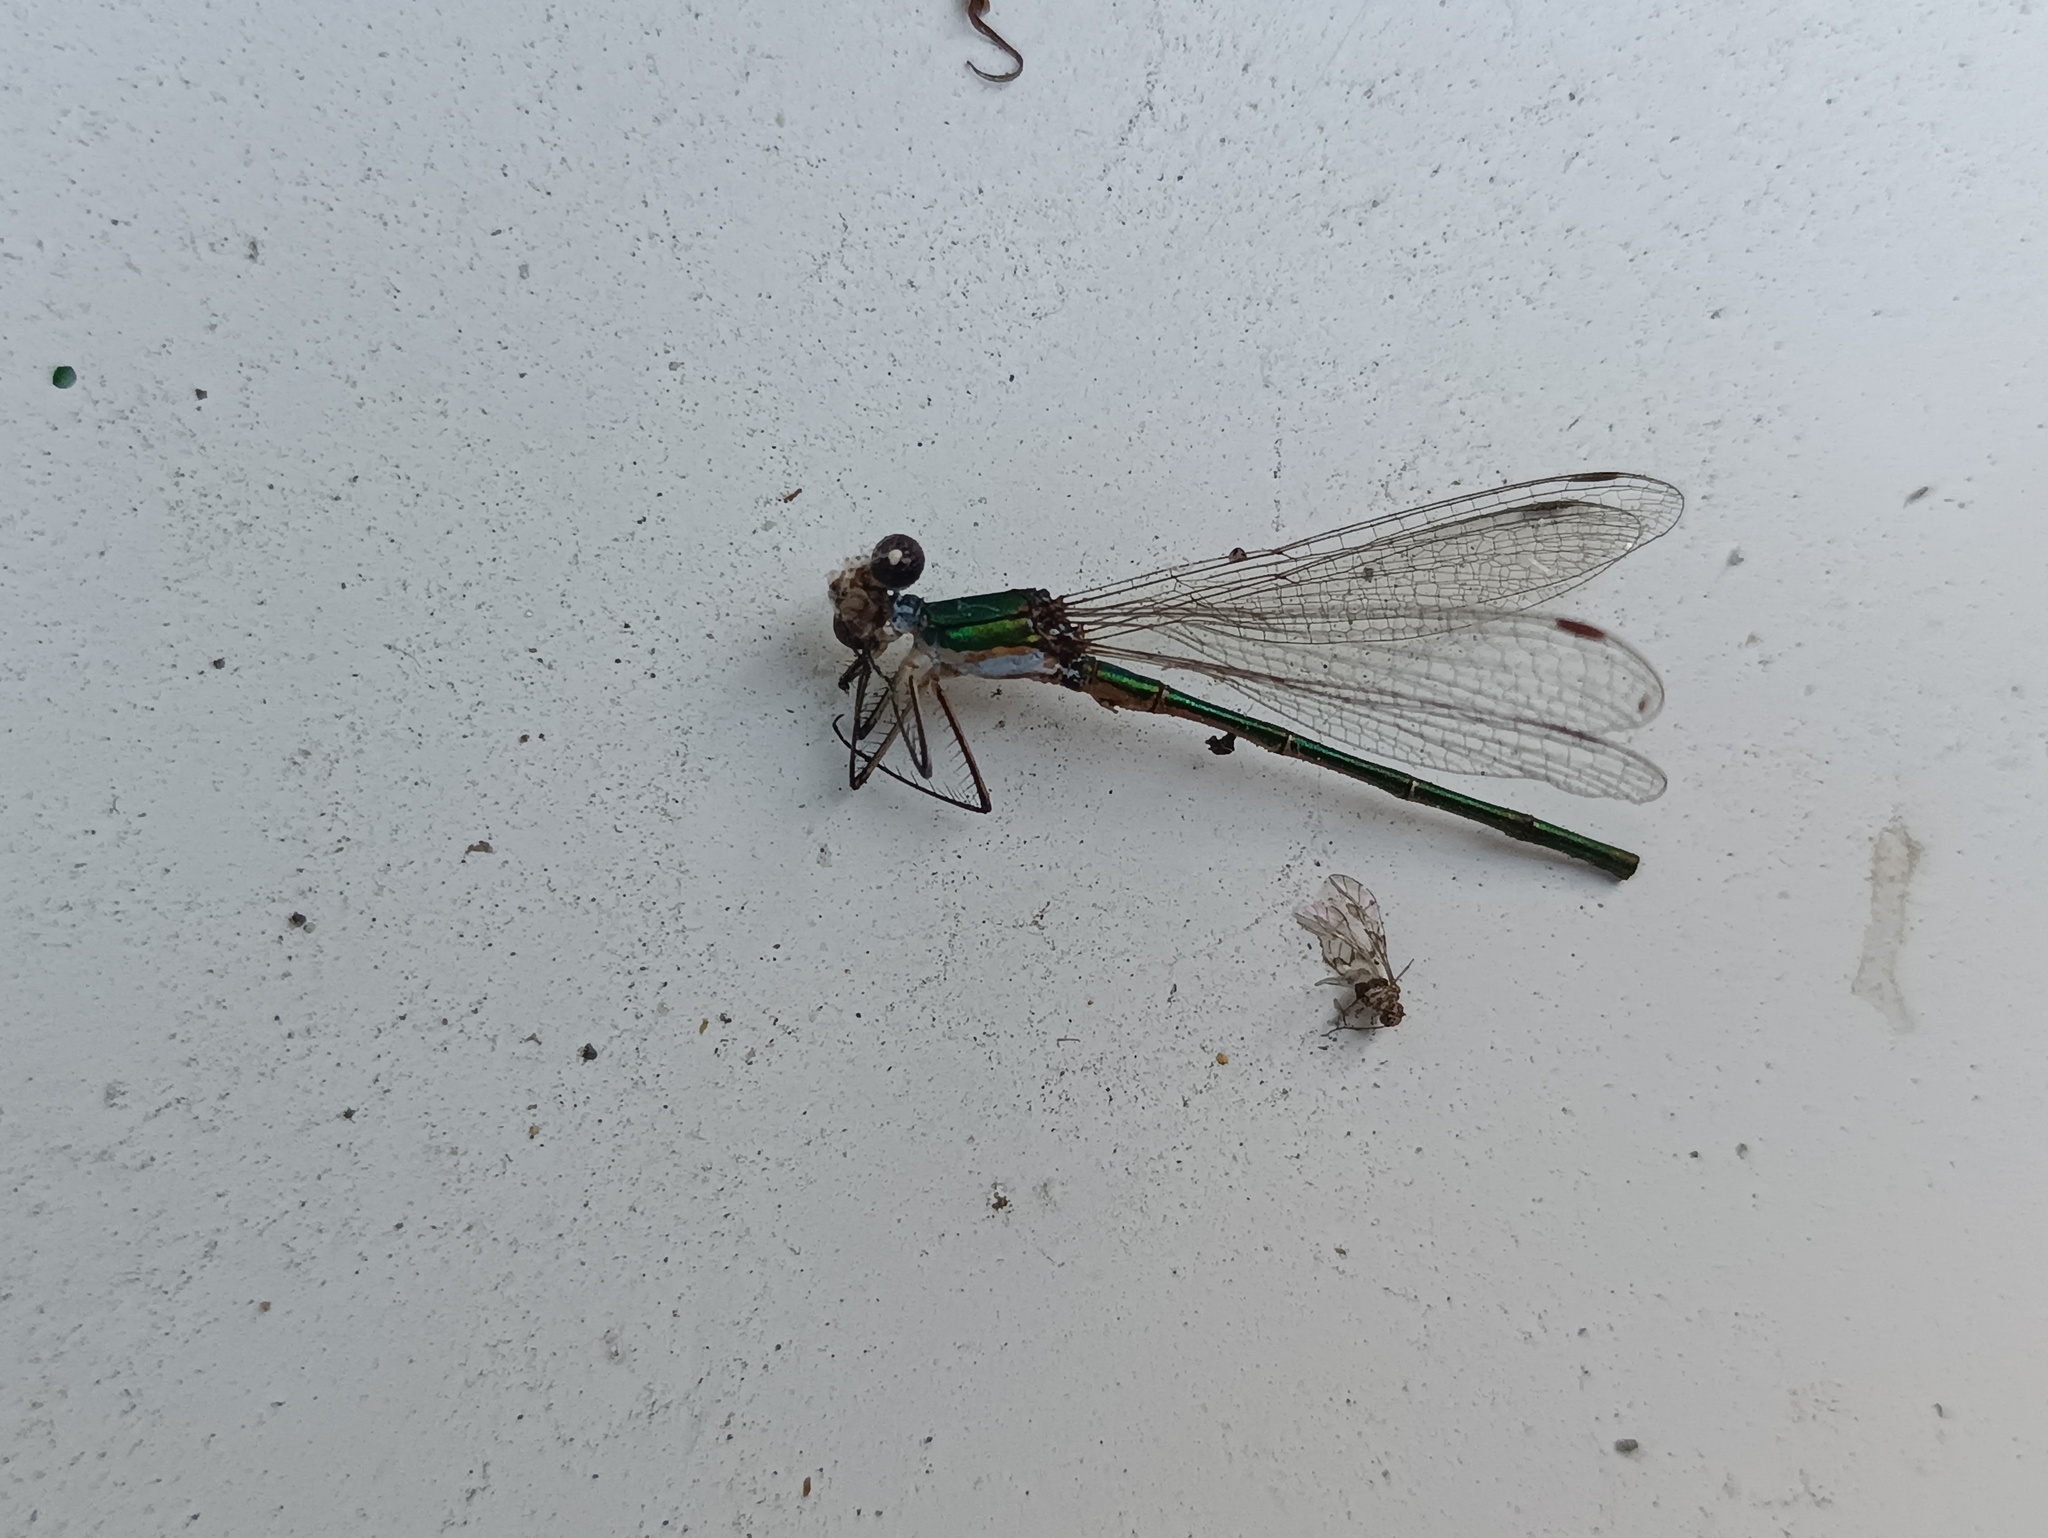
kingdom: Animalia
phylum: Arthropoda
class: Insecta
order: Odonata
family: Lestidae
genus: Lestes
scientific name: Lestes virens
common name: Small emerald spreadwing
